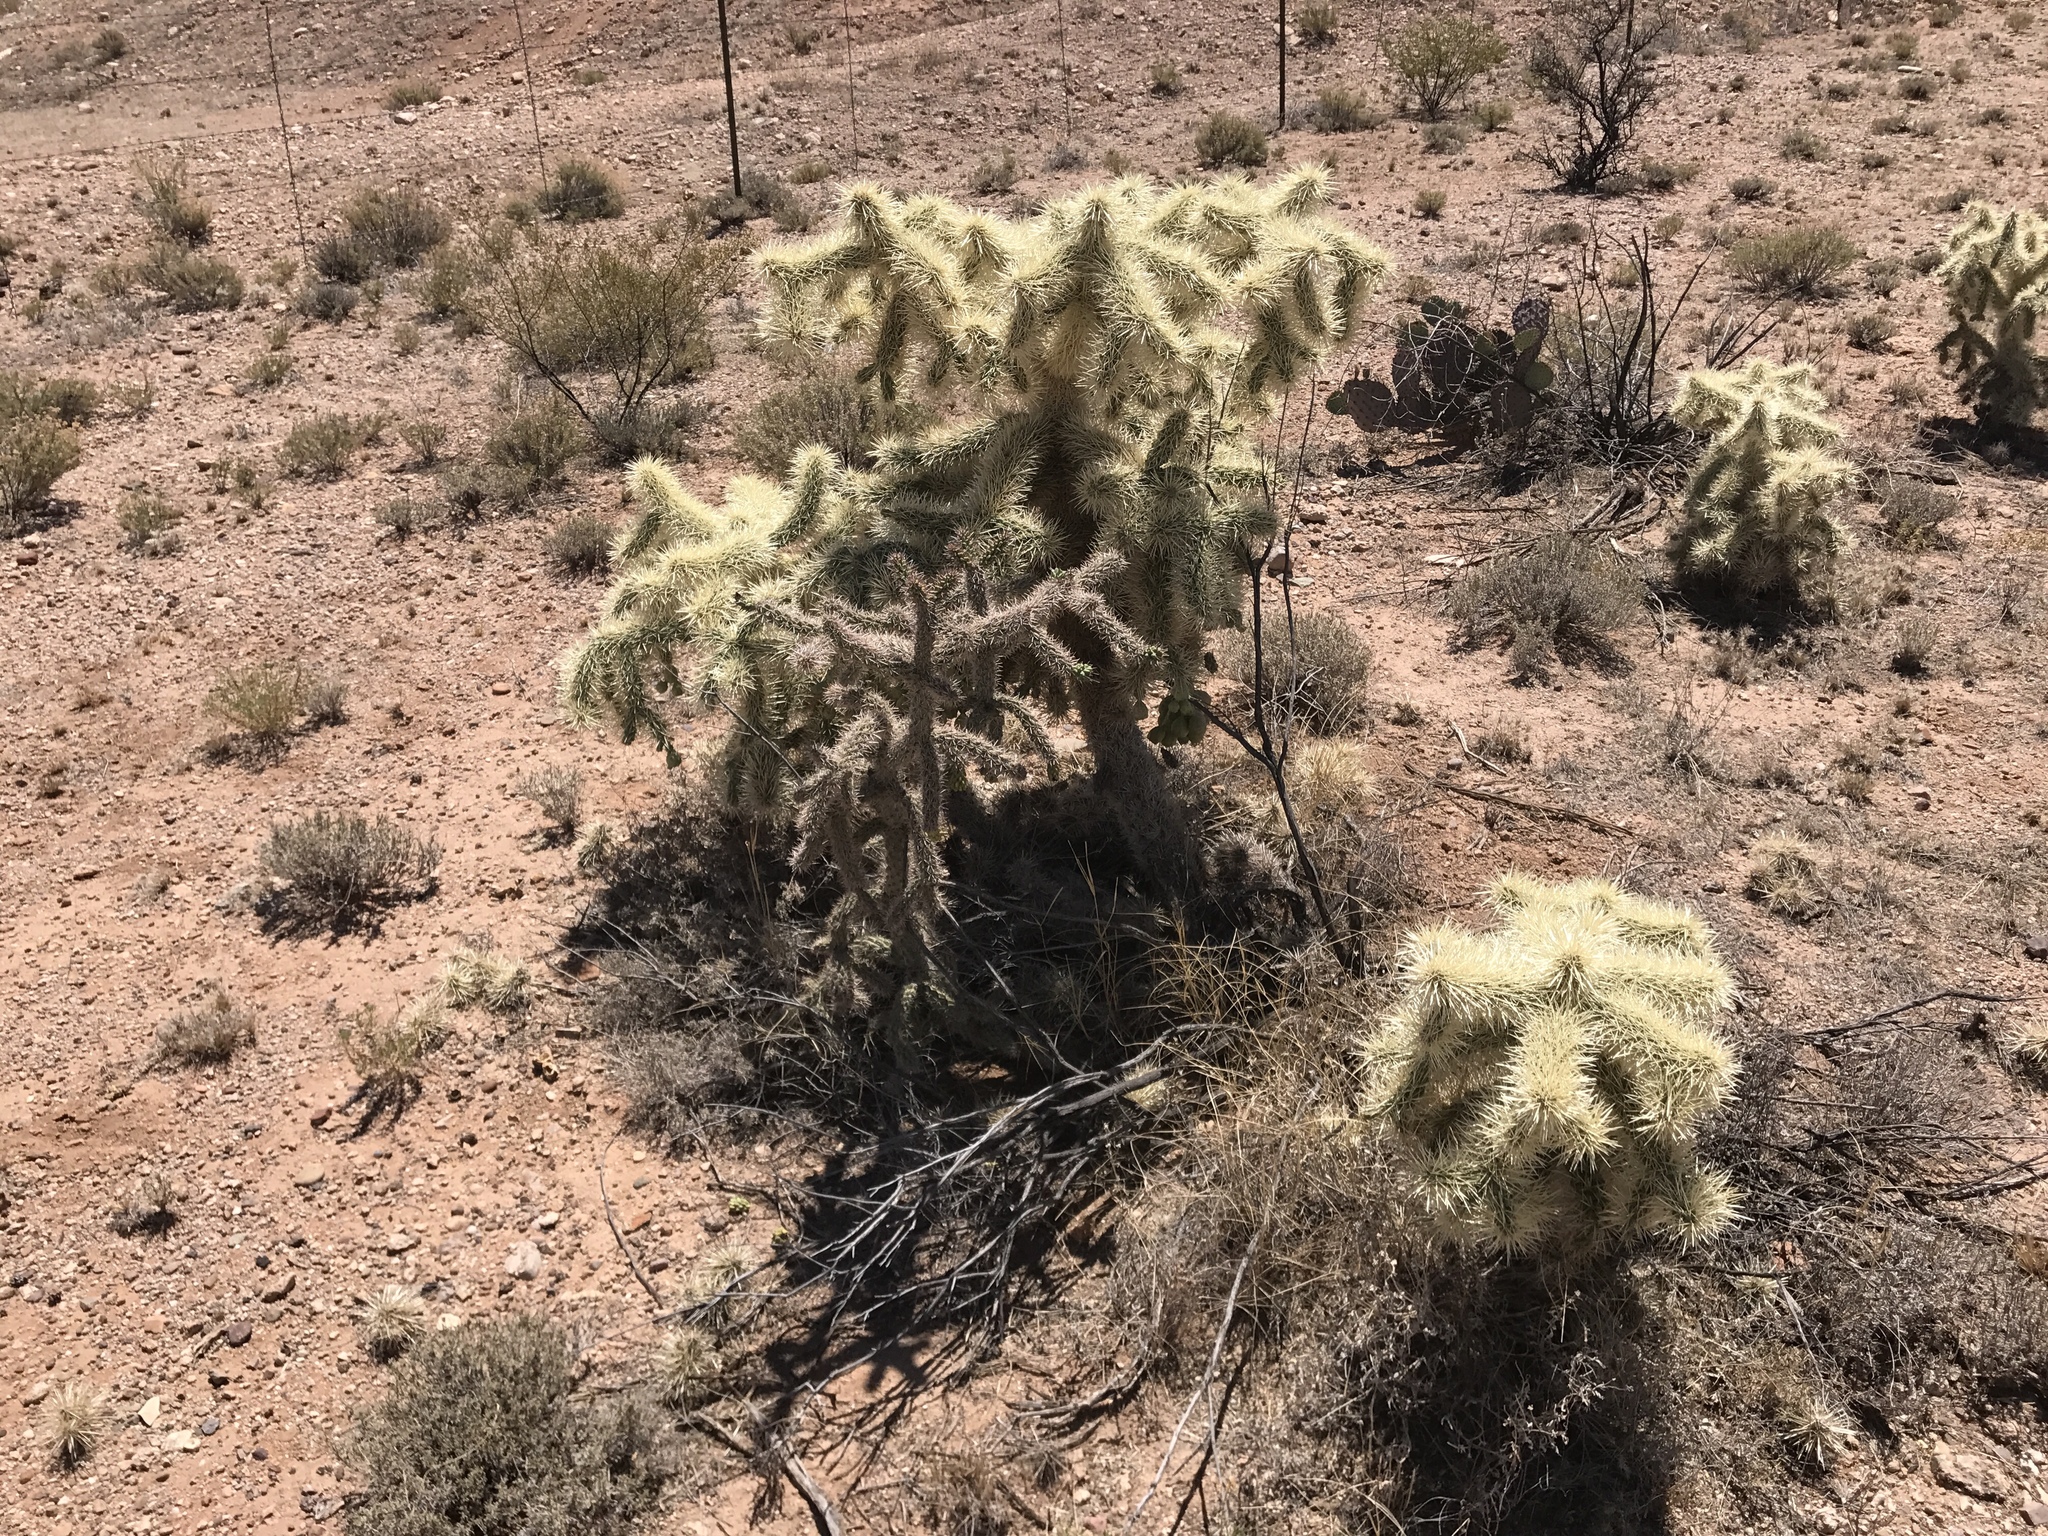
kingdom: Plantae
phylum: Tracheophyta
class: Magnoliopsida
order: Caryophyllales
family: Cactaceae
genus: Cylindropuntia
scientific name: Cylindropuntia fulgida
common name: Jumping cholla
